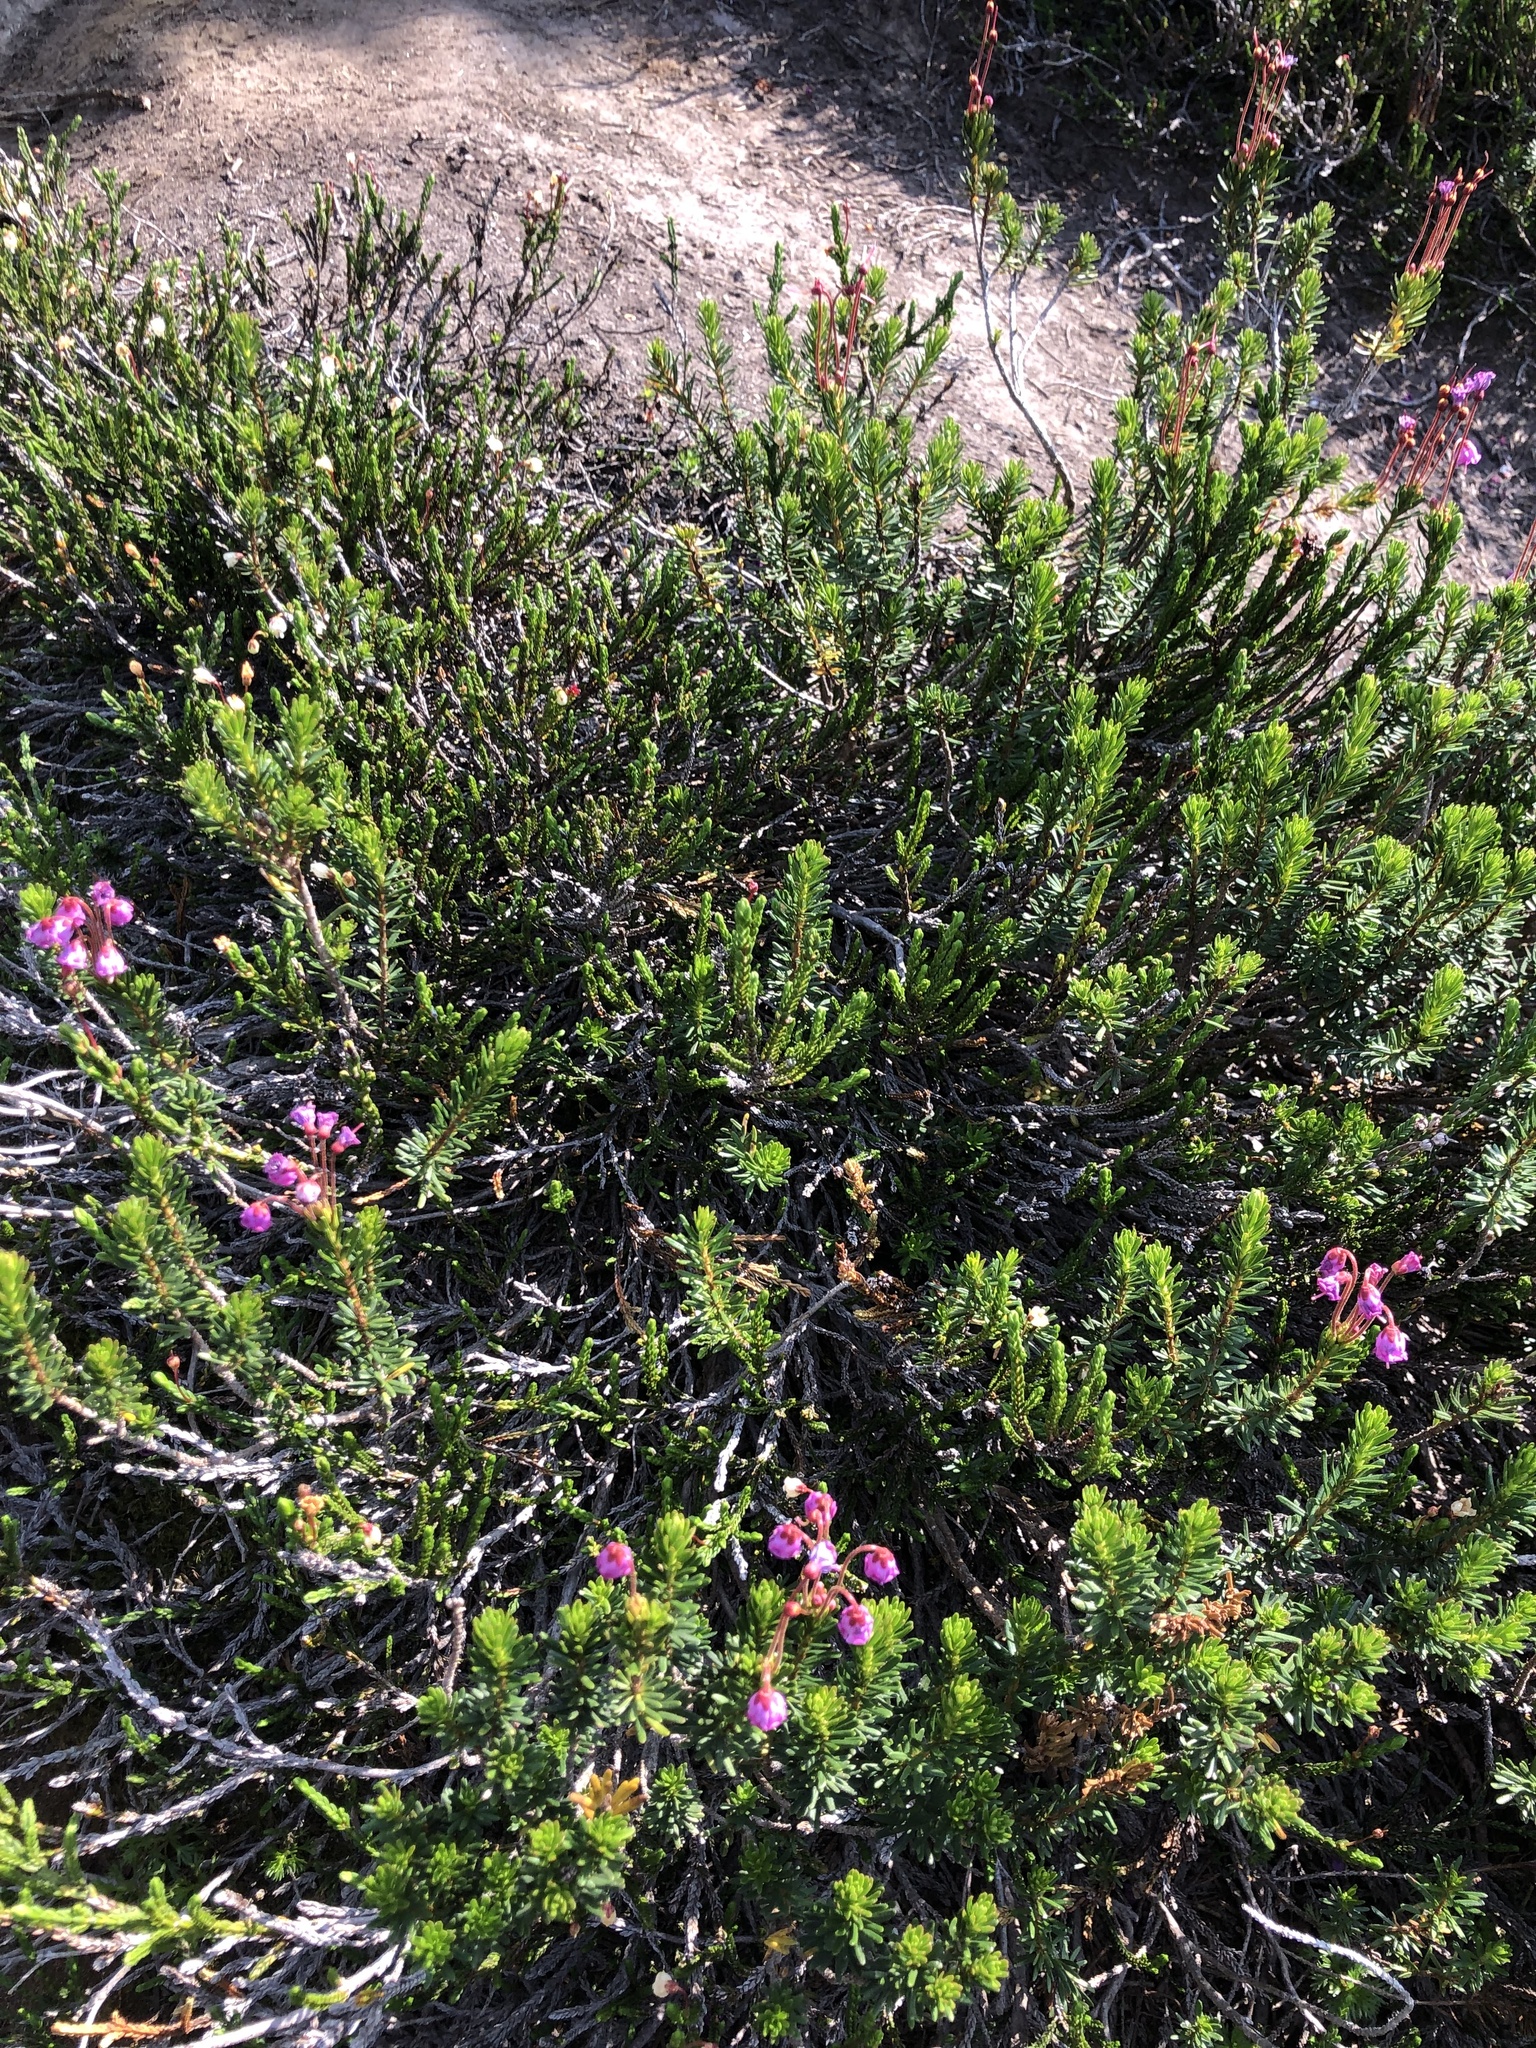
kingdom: Plantae
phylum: Tracheophyta
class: Magnoliopsida
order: Ericales
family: Ericaceae
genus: Phyllodoce
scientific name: Phyllodoce empetriformis
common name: Pink mountain heather
